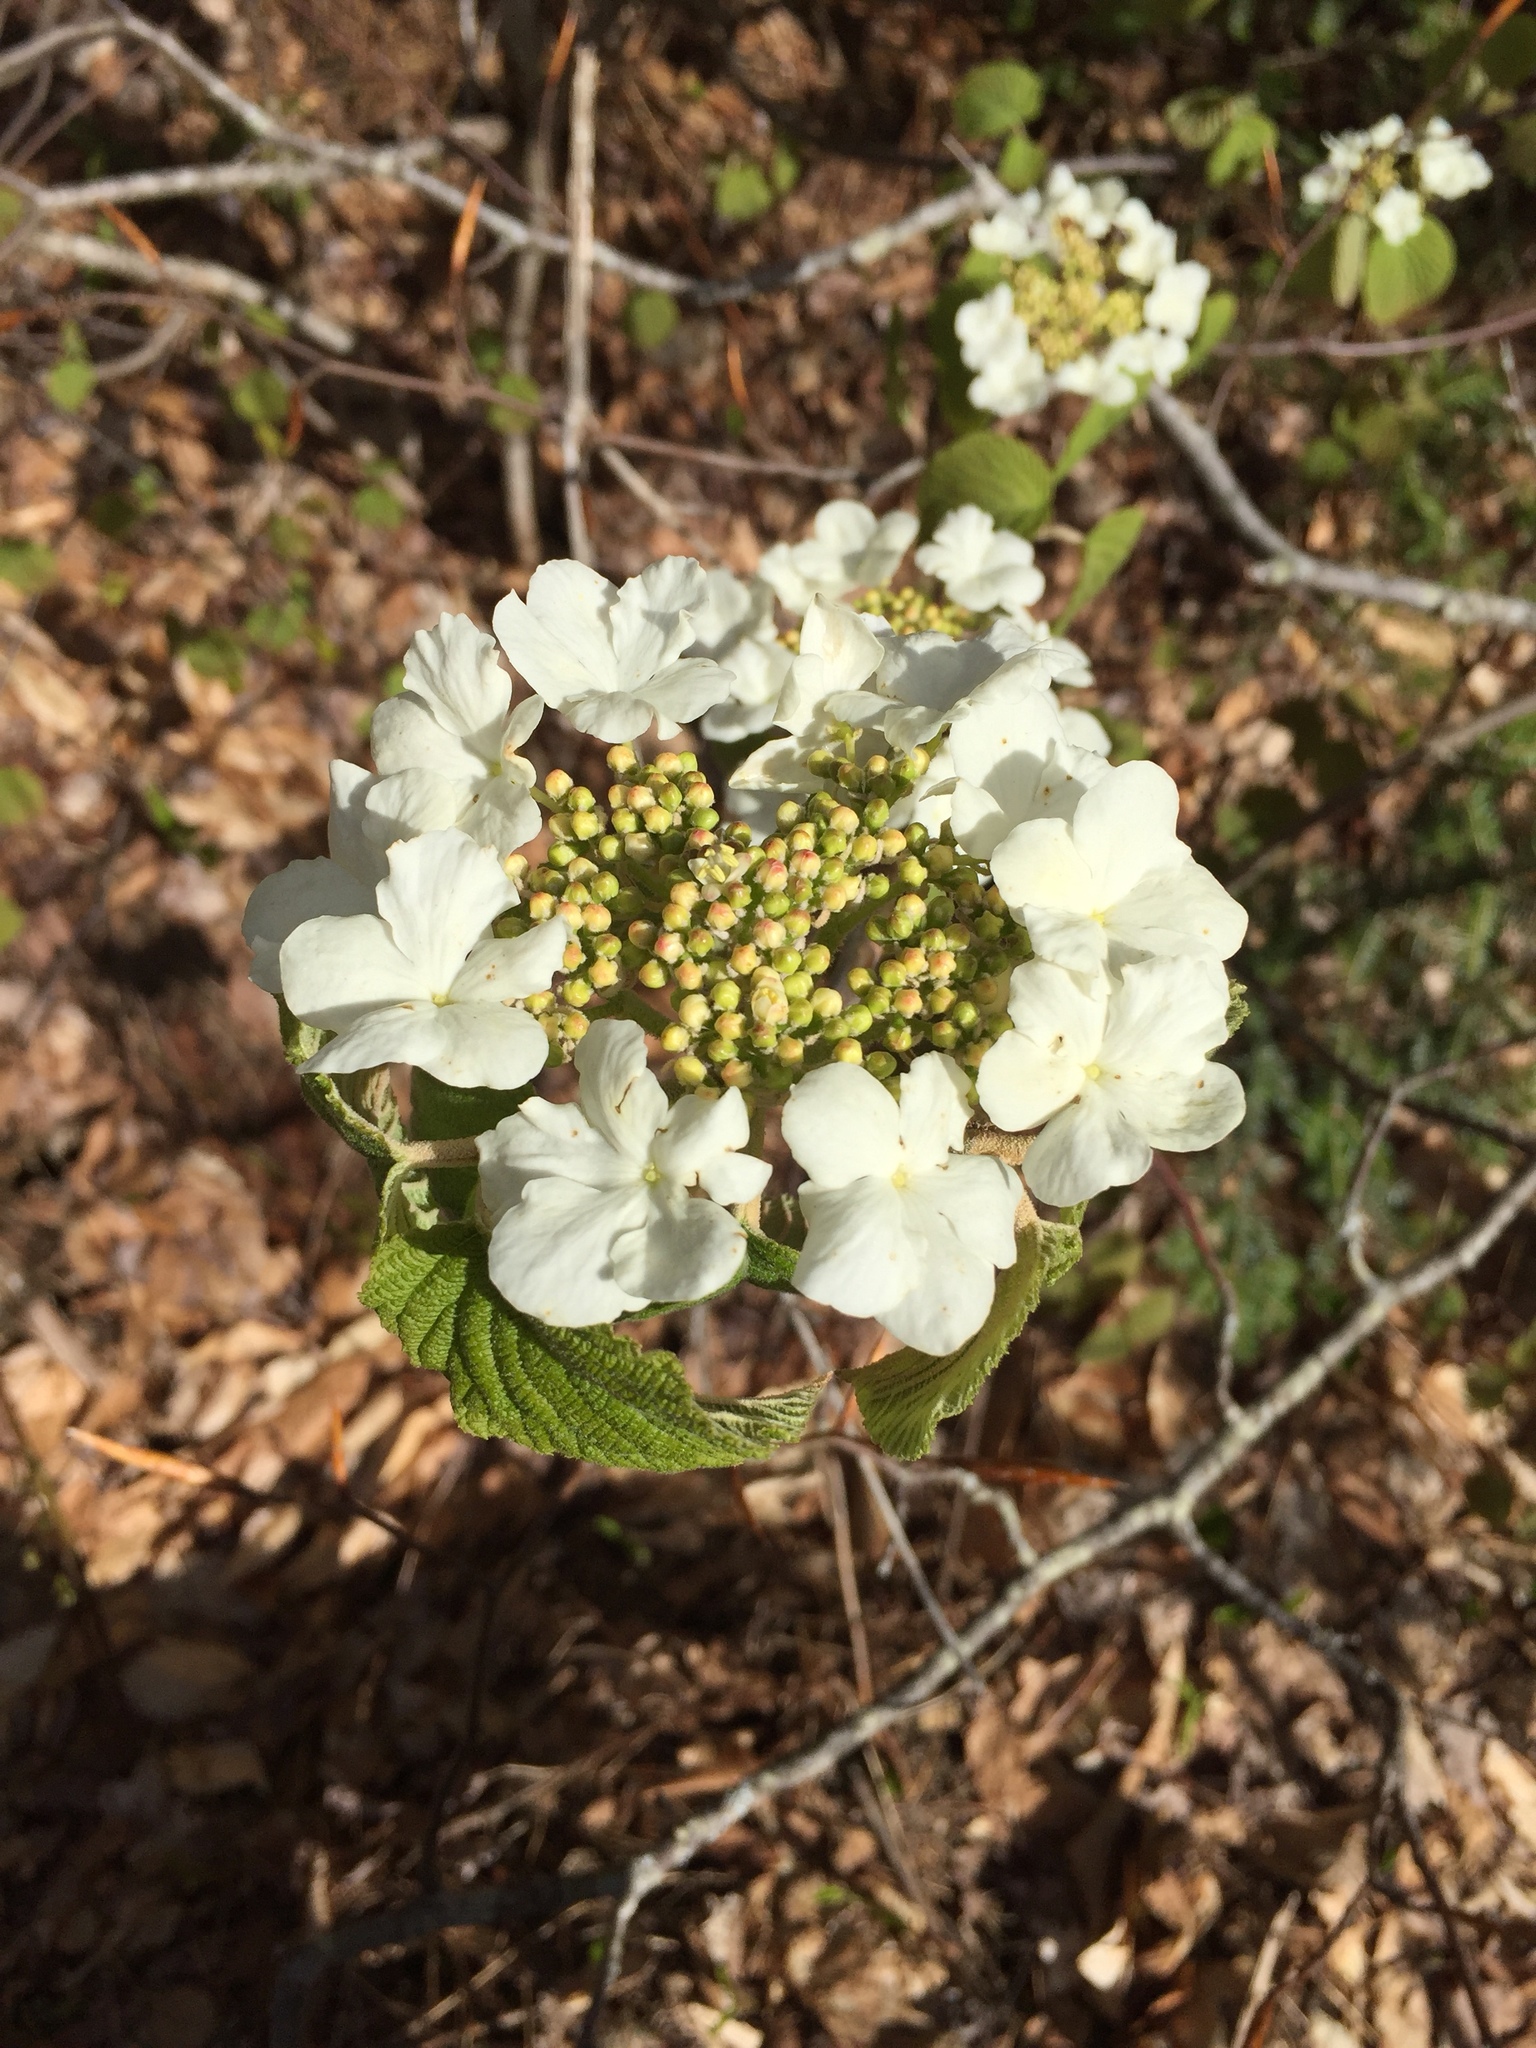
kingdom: Plantae
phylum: Tracheophyta
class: Magnoliopsida
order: Dipsacales
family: Viburnaceae
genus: Viburnum
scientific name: Viburnum lantanoides
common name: Hobblebush
